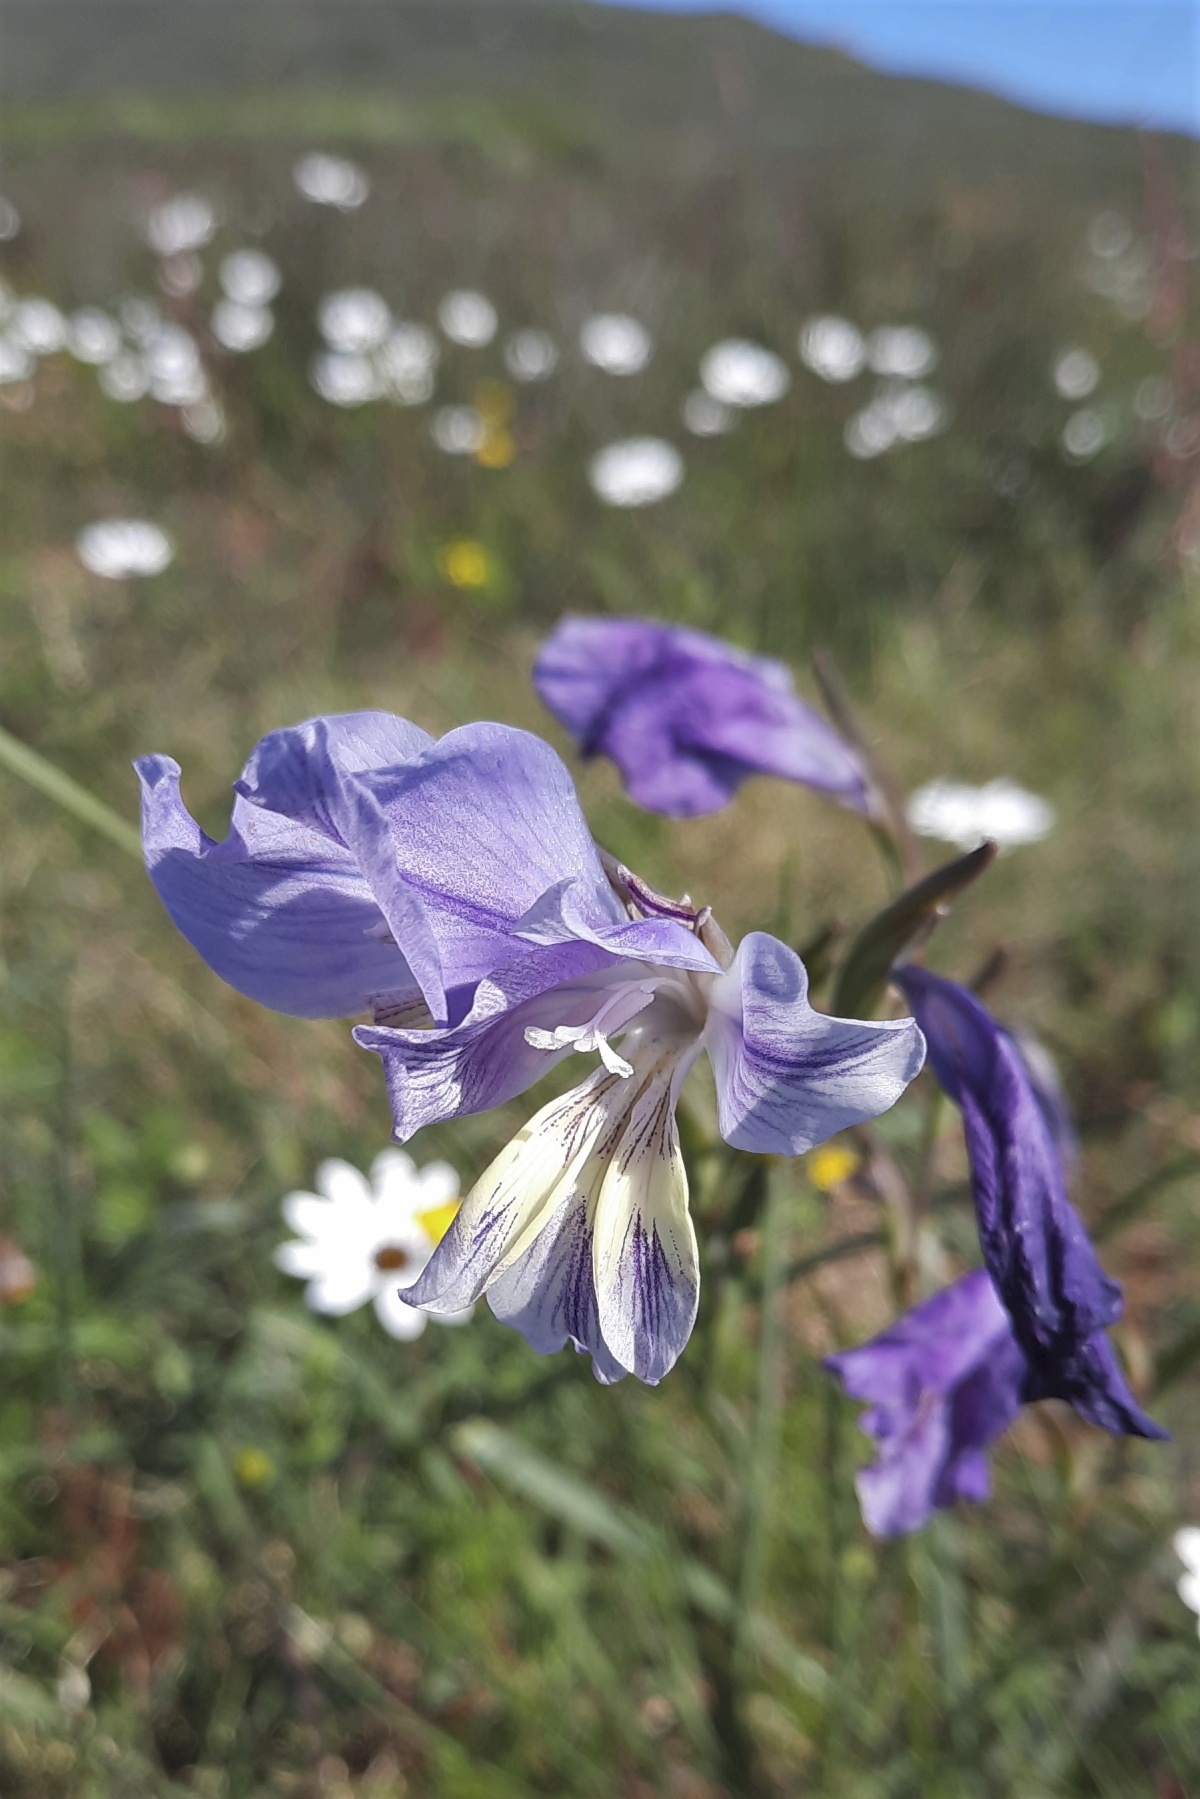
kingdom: Plantae
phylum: Tracheophyta
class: Liliopsida
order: Asparagales
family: Iridaceae
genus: Gladiolus
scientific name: Gladiolus carinatus
